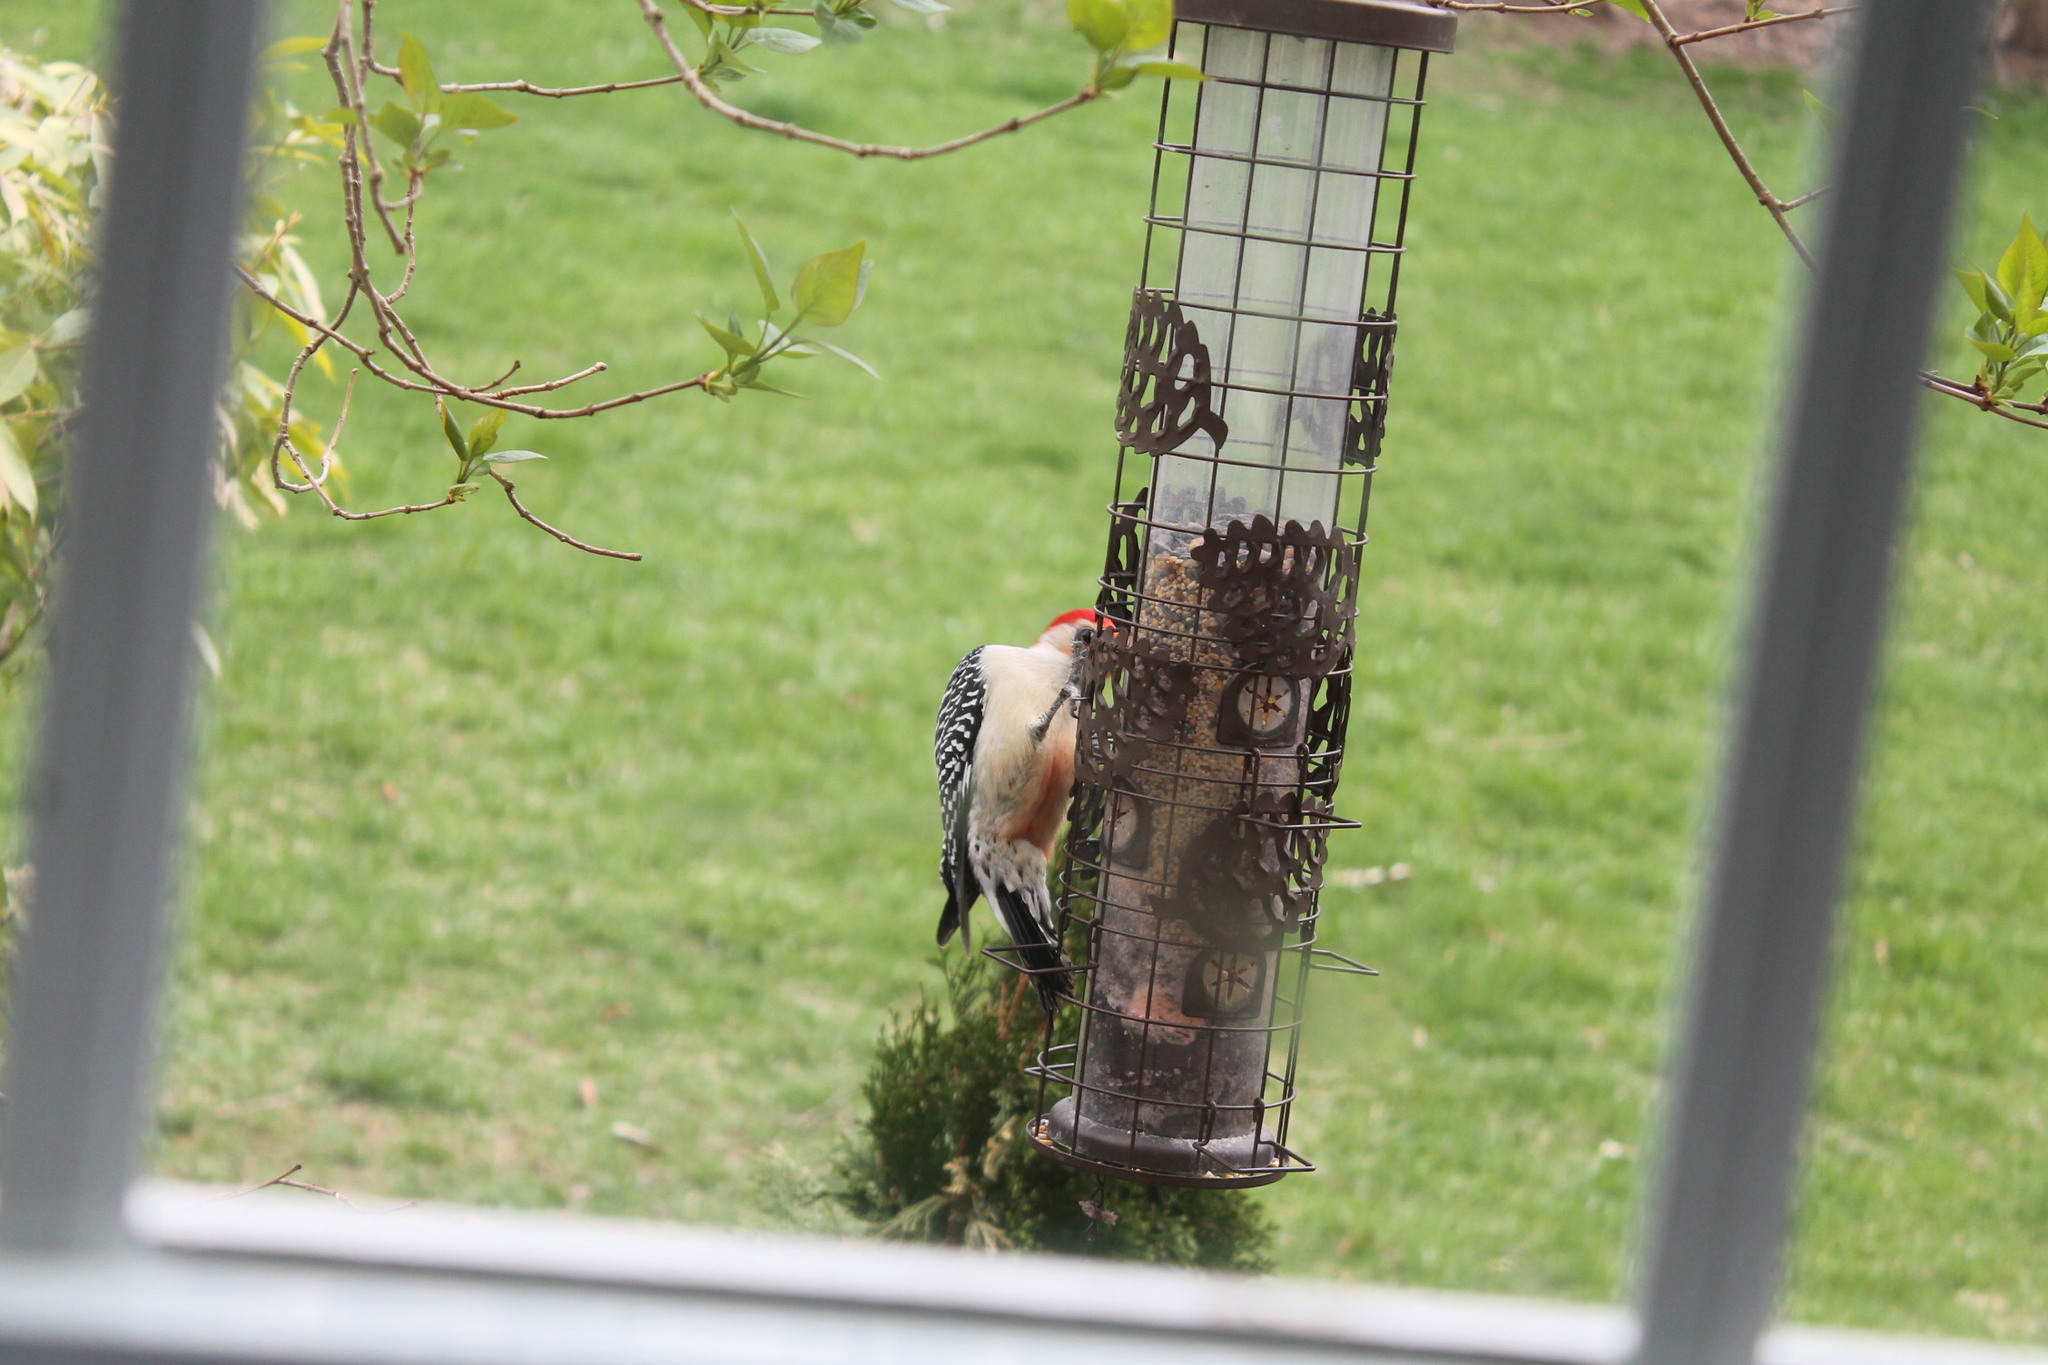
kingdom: Animalia
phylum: Chordata
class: Aves
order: Piciformes
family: Picidae
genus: Melanerpes
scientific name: Melanerpes carolinus
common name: Red-bellied woodpecker
